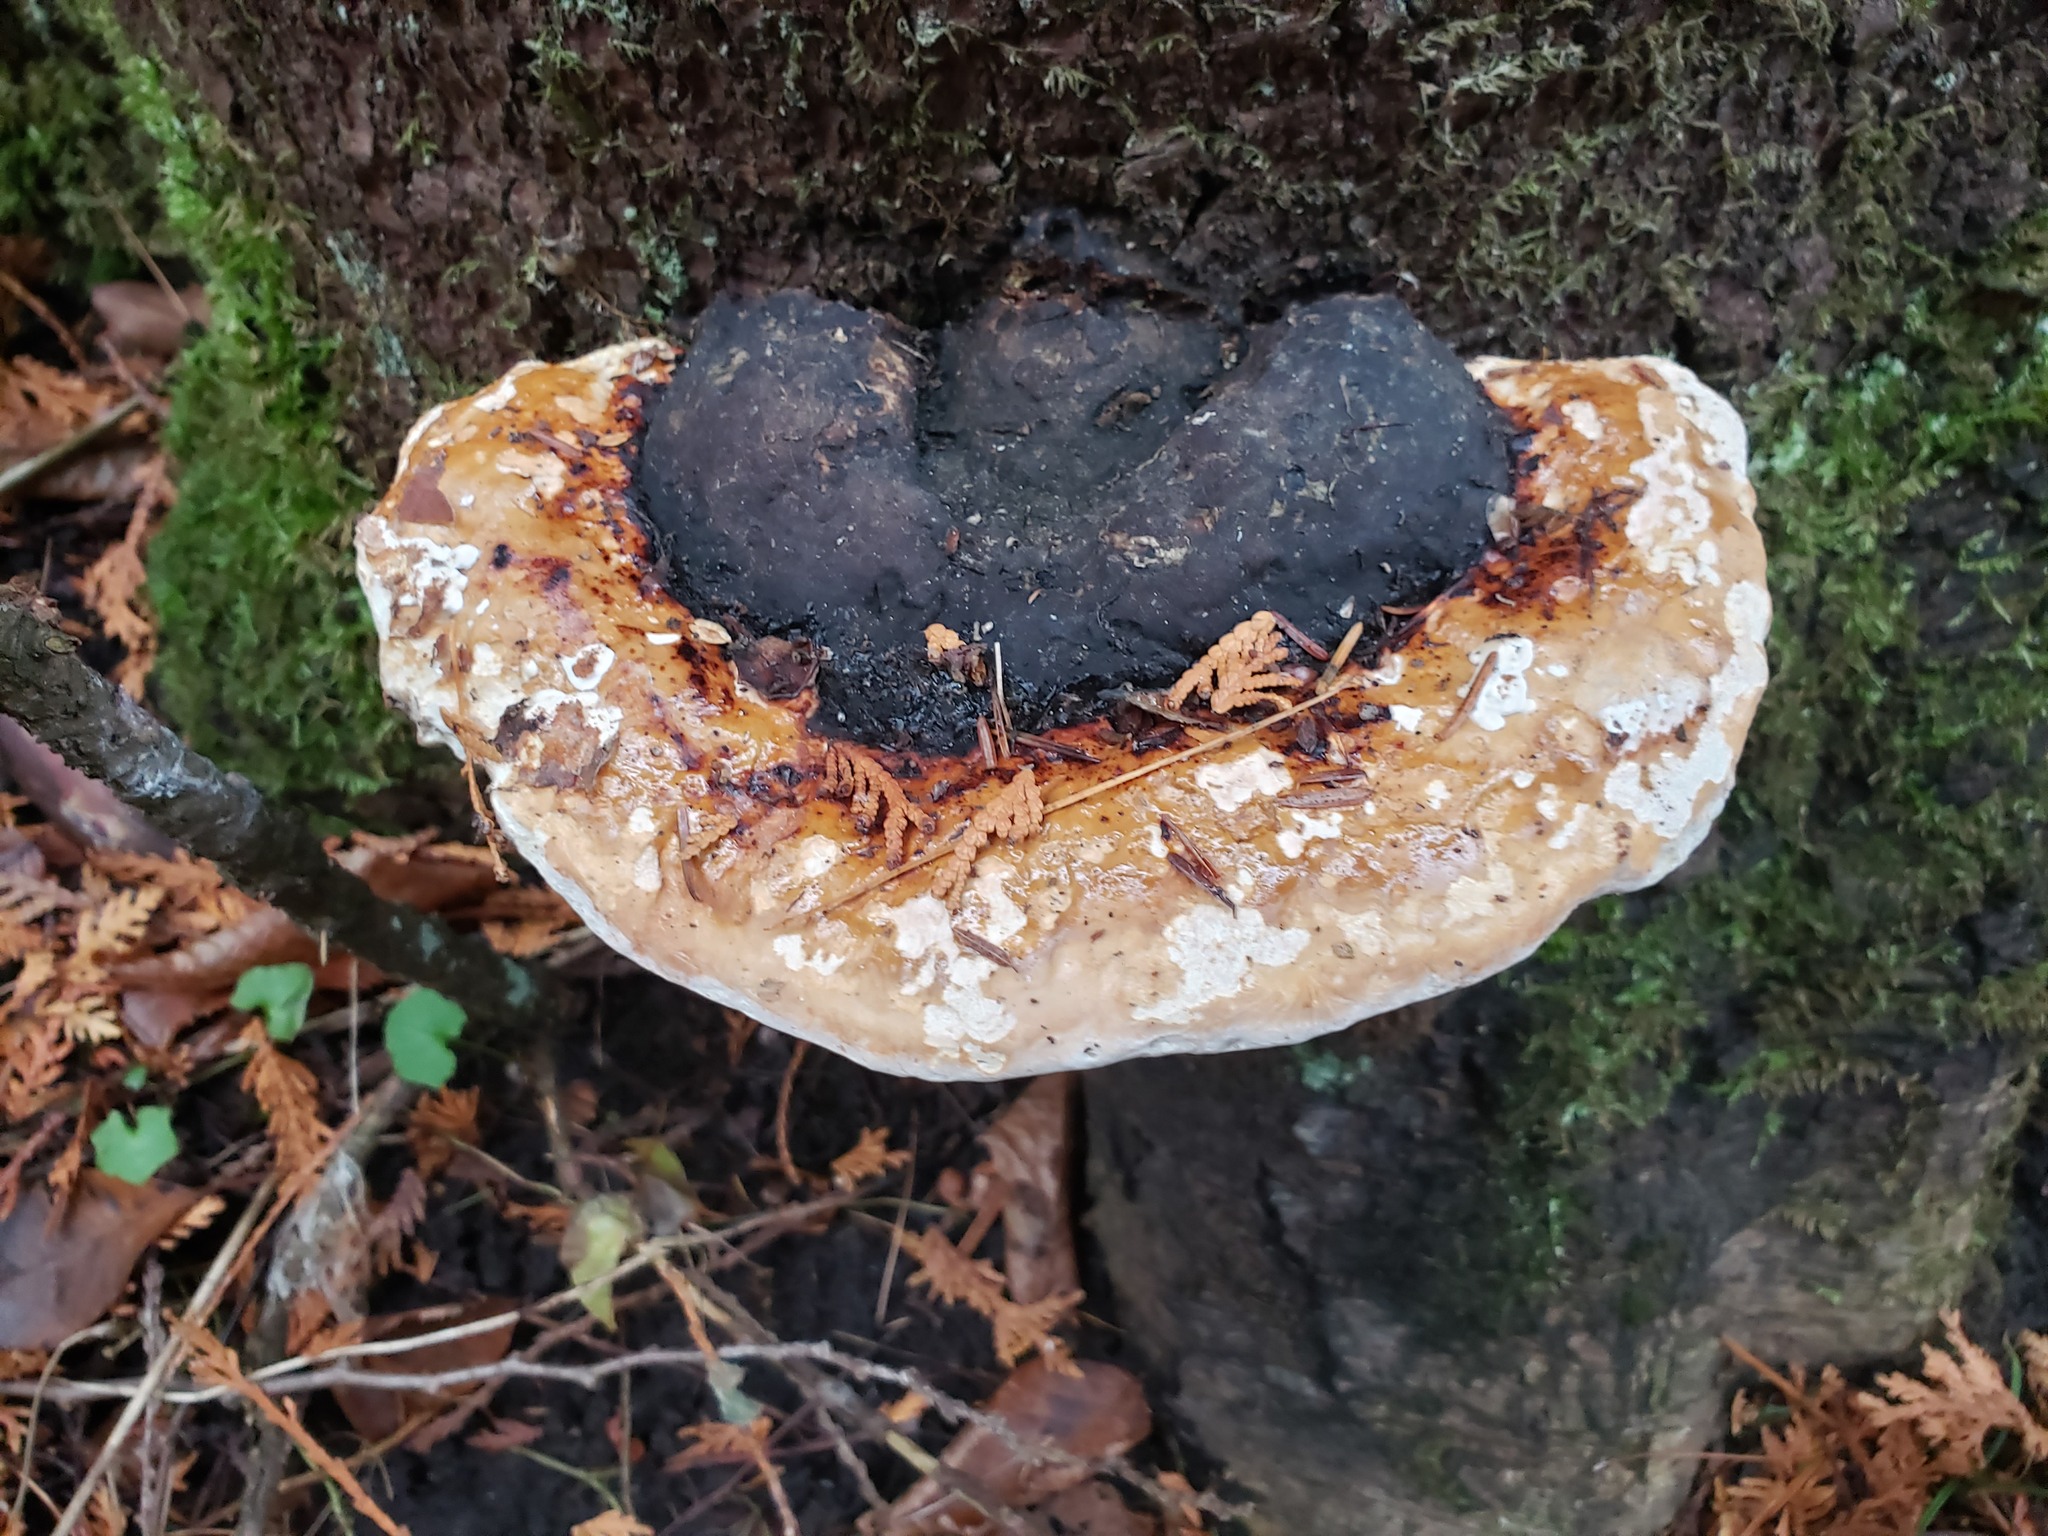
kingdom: Fungi
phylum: Basidiomycota
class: Agaricomycetes
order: Polyporales
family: Fomitopsidaceae
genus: Fomitopsis
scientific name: Fomitopsis mounceae
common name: Northern red belt
